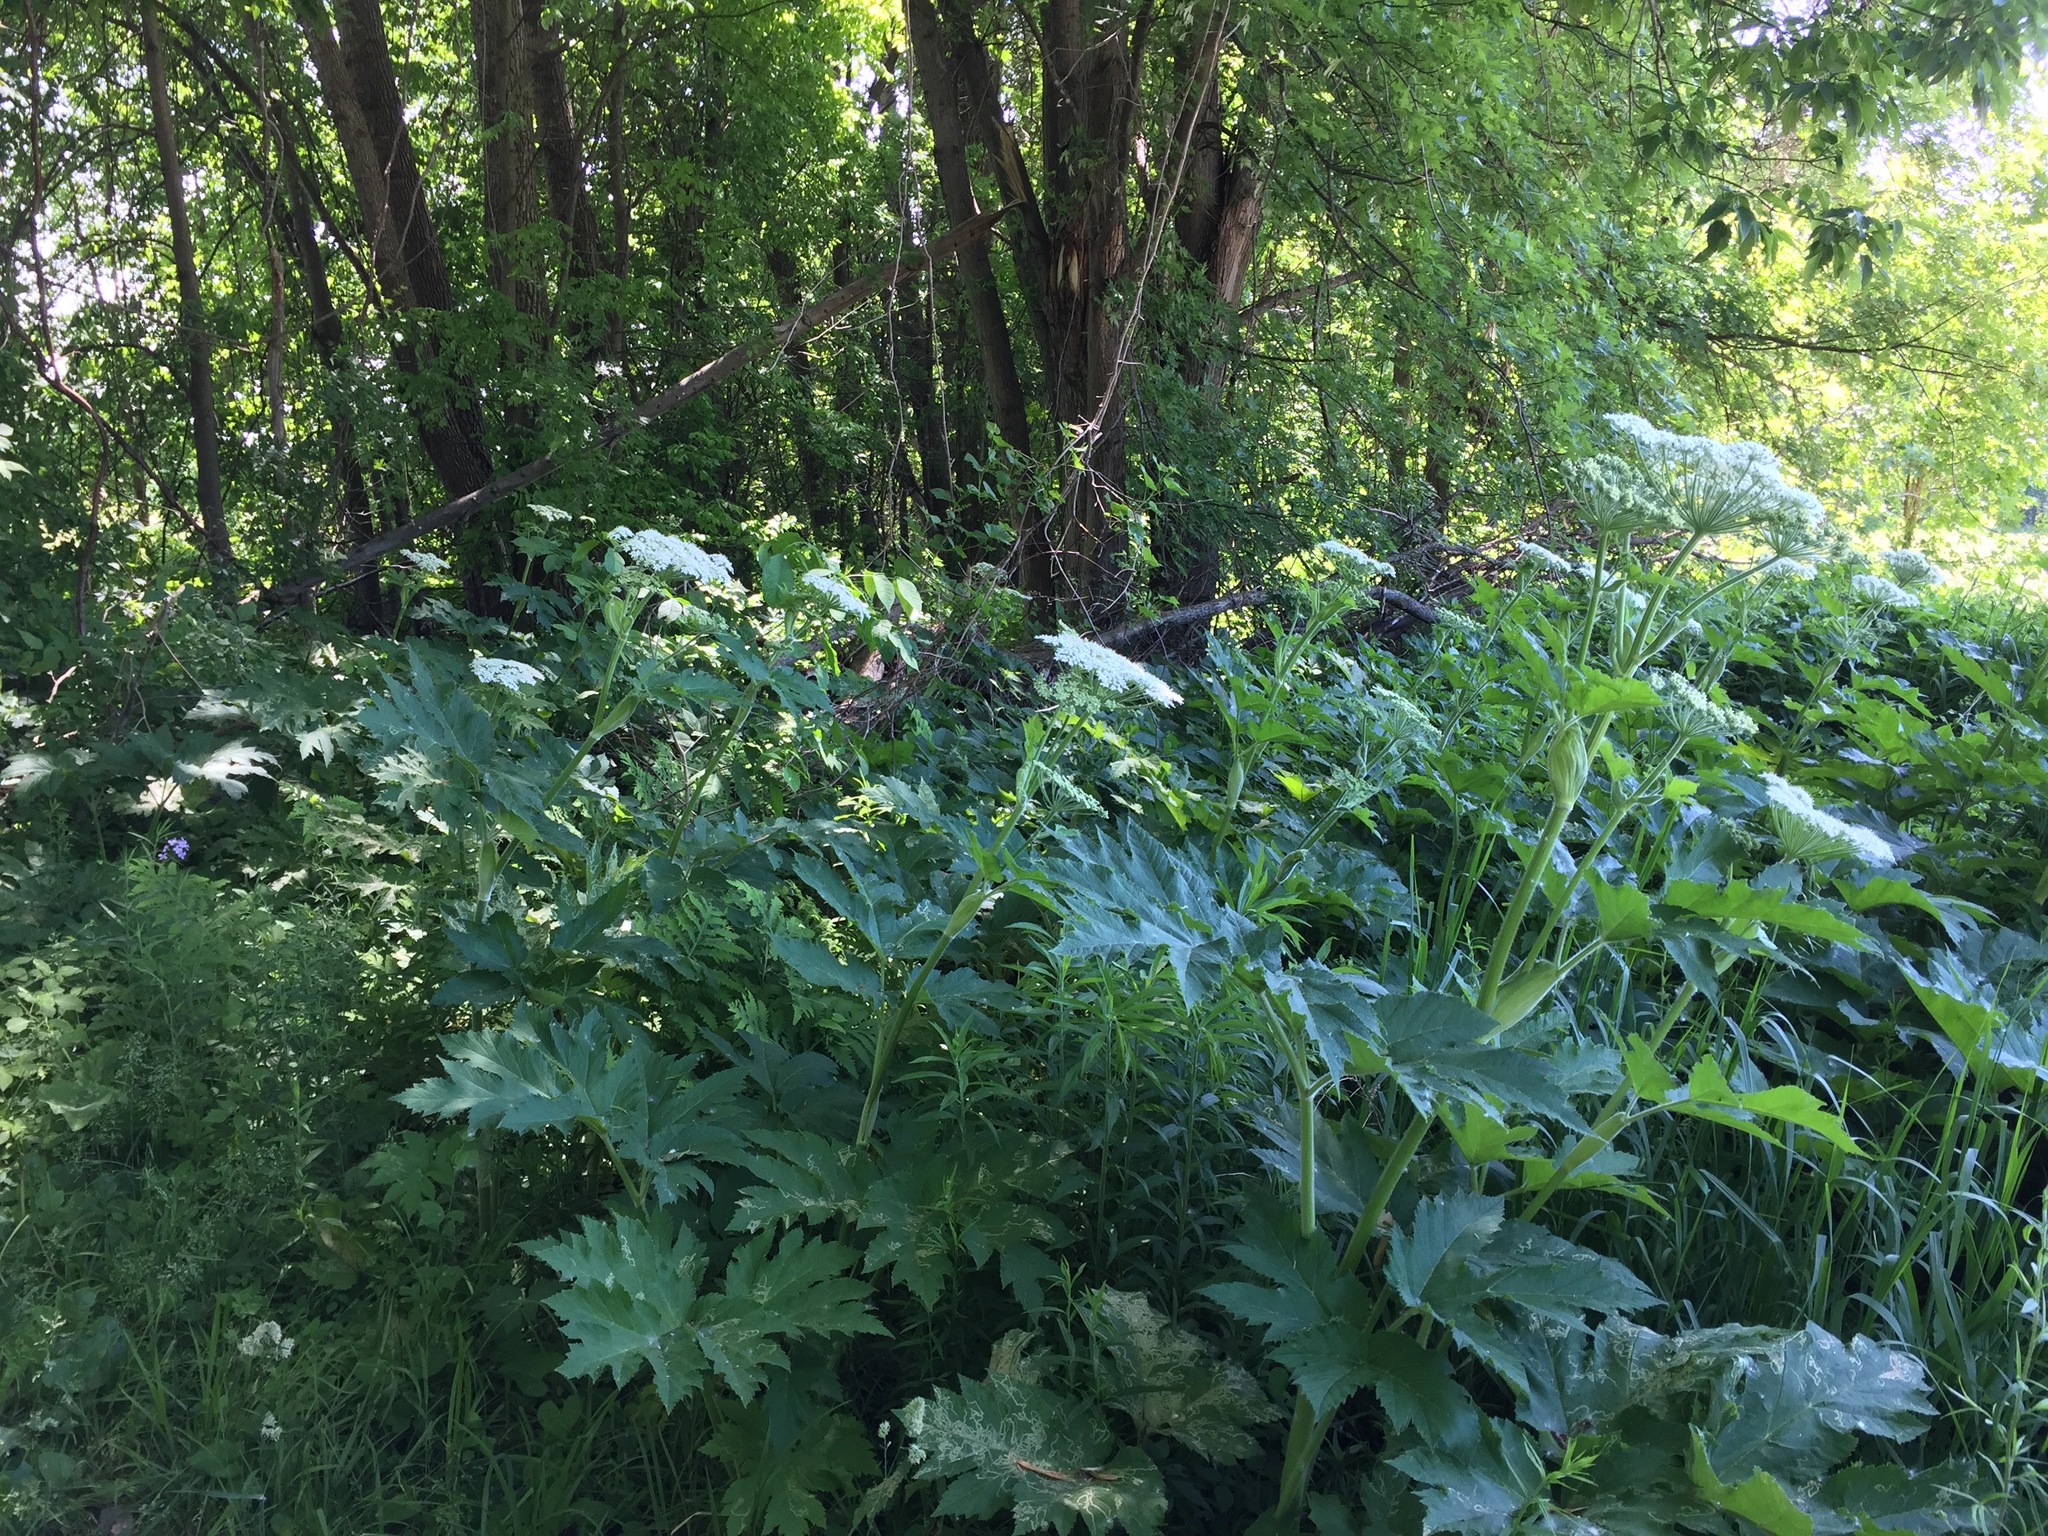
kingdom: Plantae
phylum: Tracheophyta
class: Magnoliopsida
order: Apiales
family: Apiaceae
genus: Heracleum
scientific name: Heracleum maximum
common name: American cow parsnip
